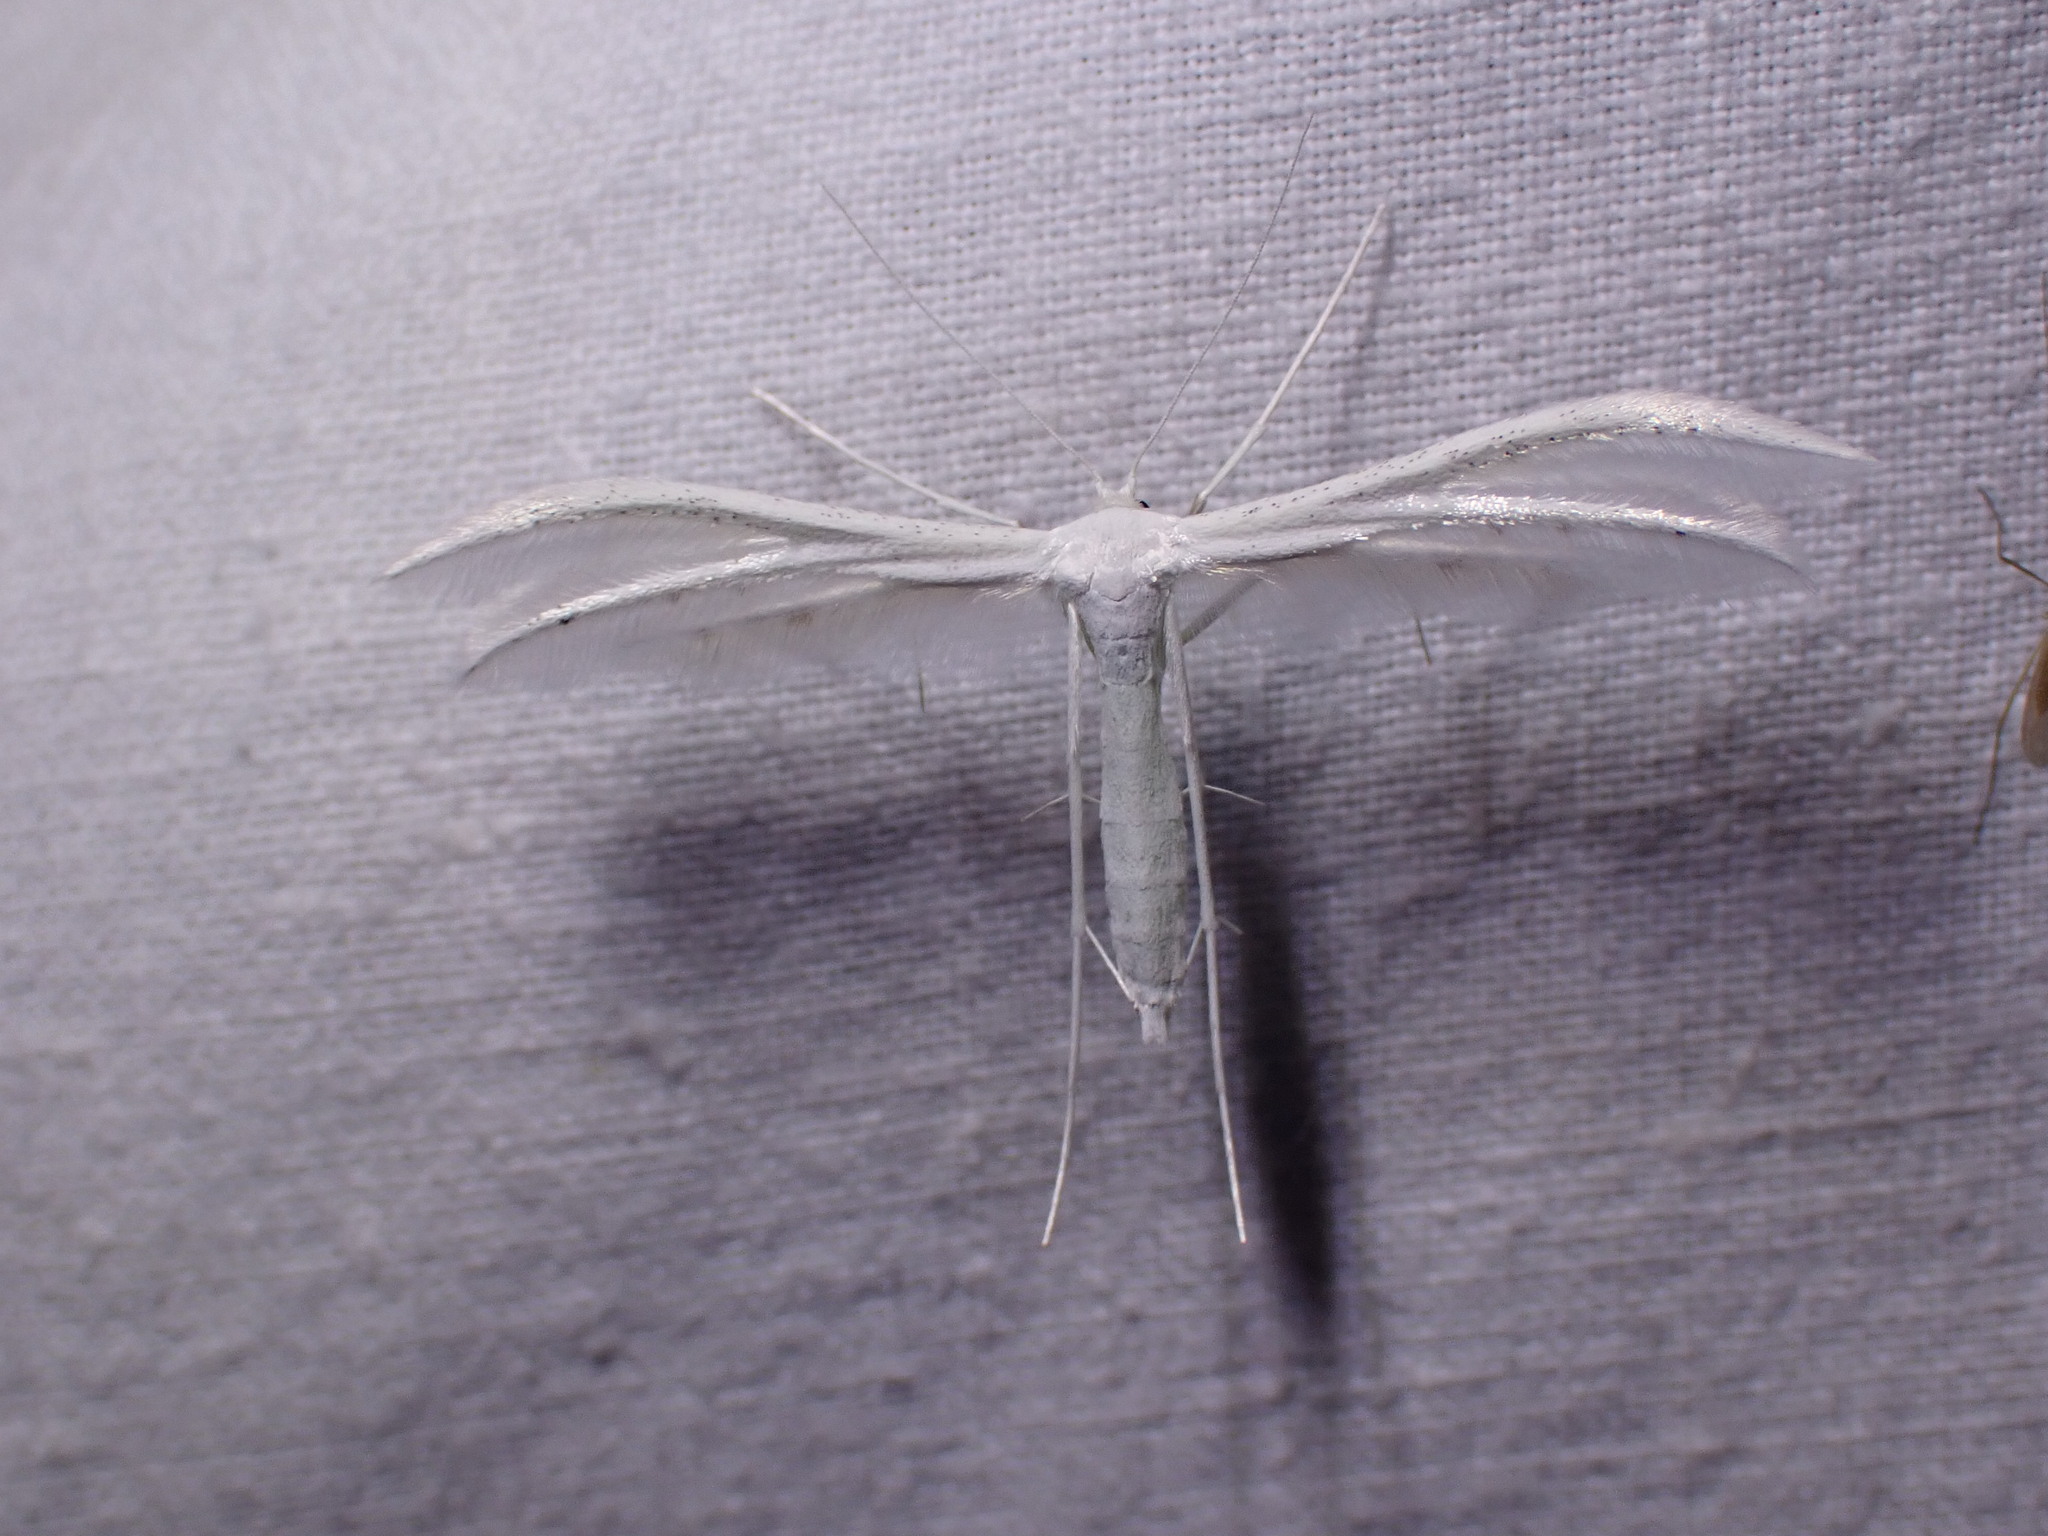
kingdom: Animalia
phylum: Arthropoda
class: Insecta
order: Lepidoptera
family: Pterophoridae
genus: Pterophorus
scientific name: Pterophorus pentadactyla
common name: White plume moth
